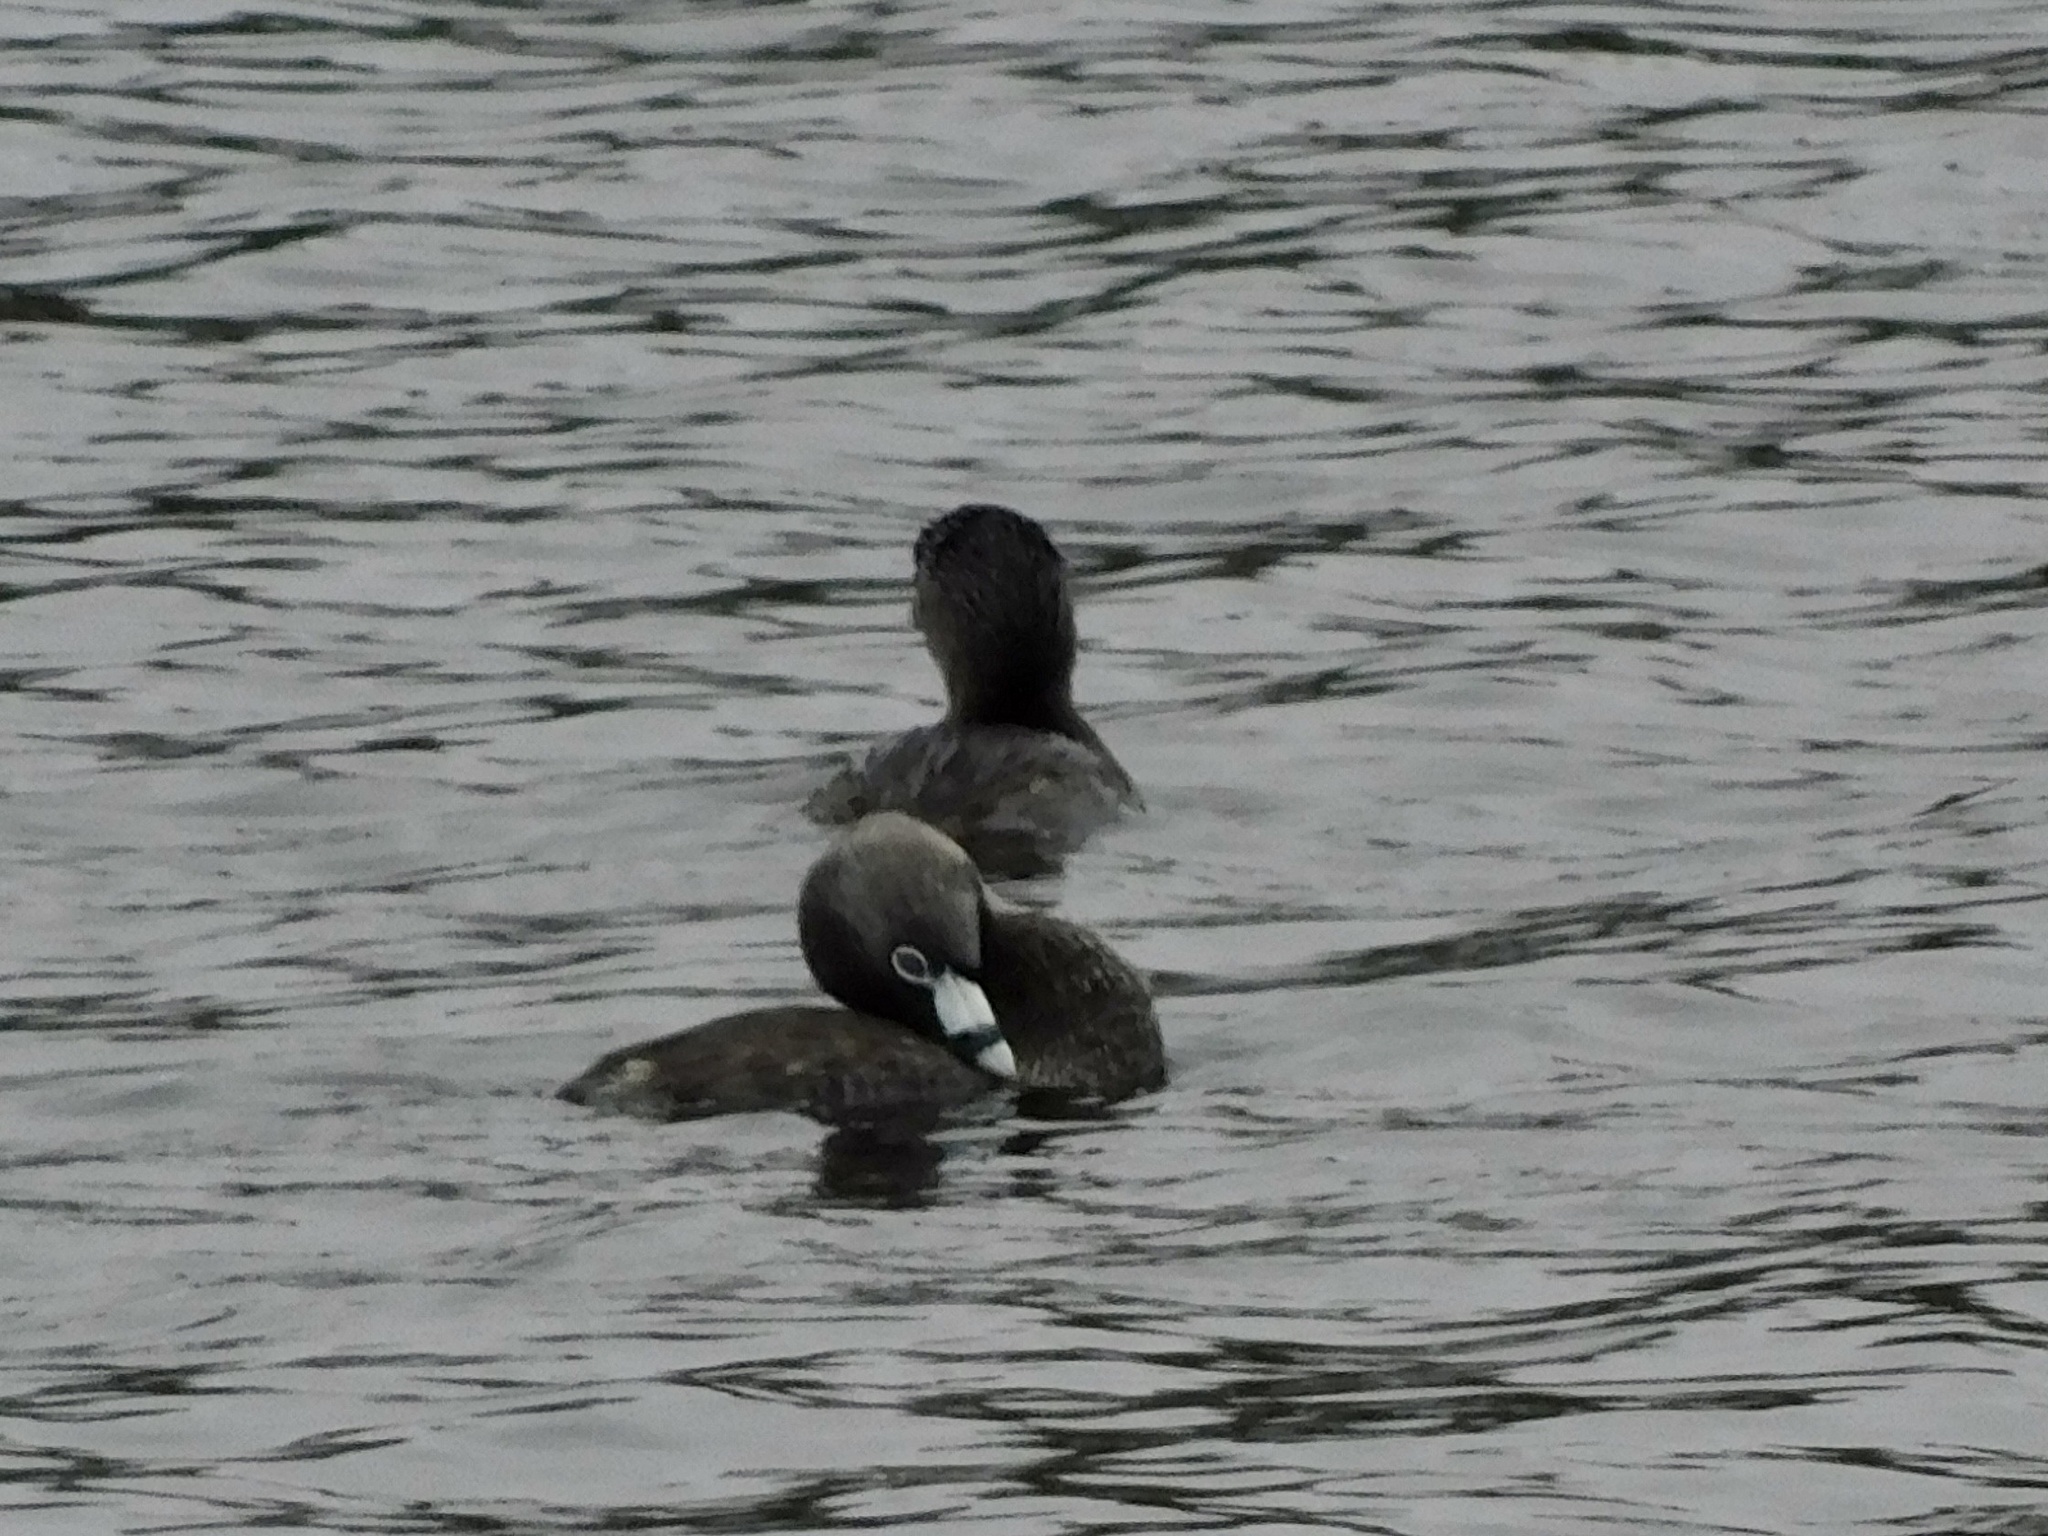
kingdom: Animalia
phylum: Chordata
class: Aves
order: Podicipediformes
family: Podicipedidae
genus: Podilymbus
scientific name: Podilymbus podiceps
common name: Pied-billed grebe
